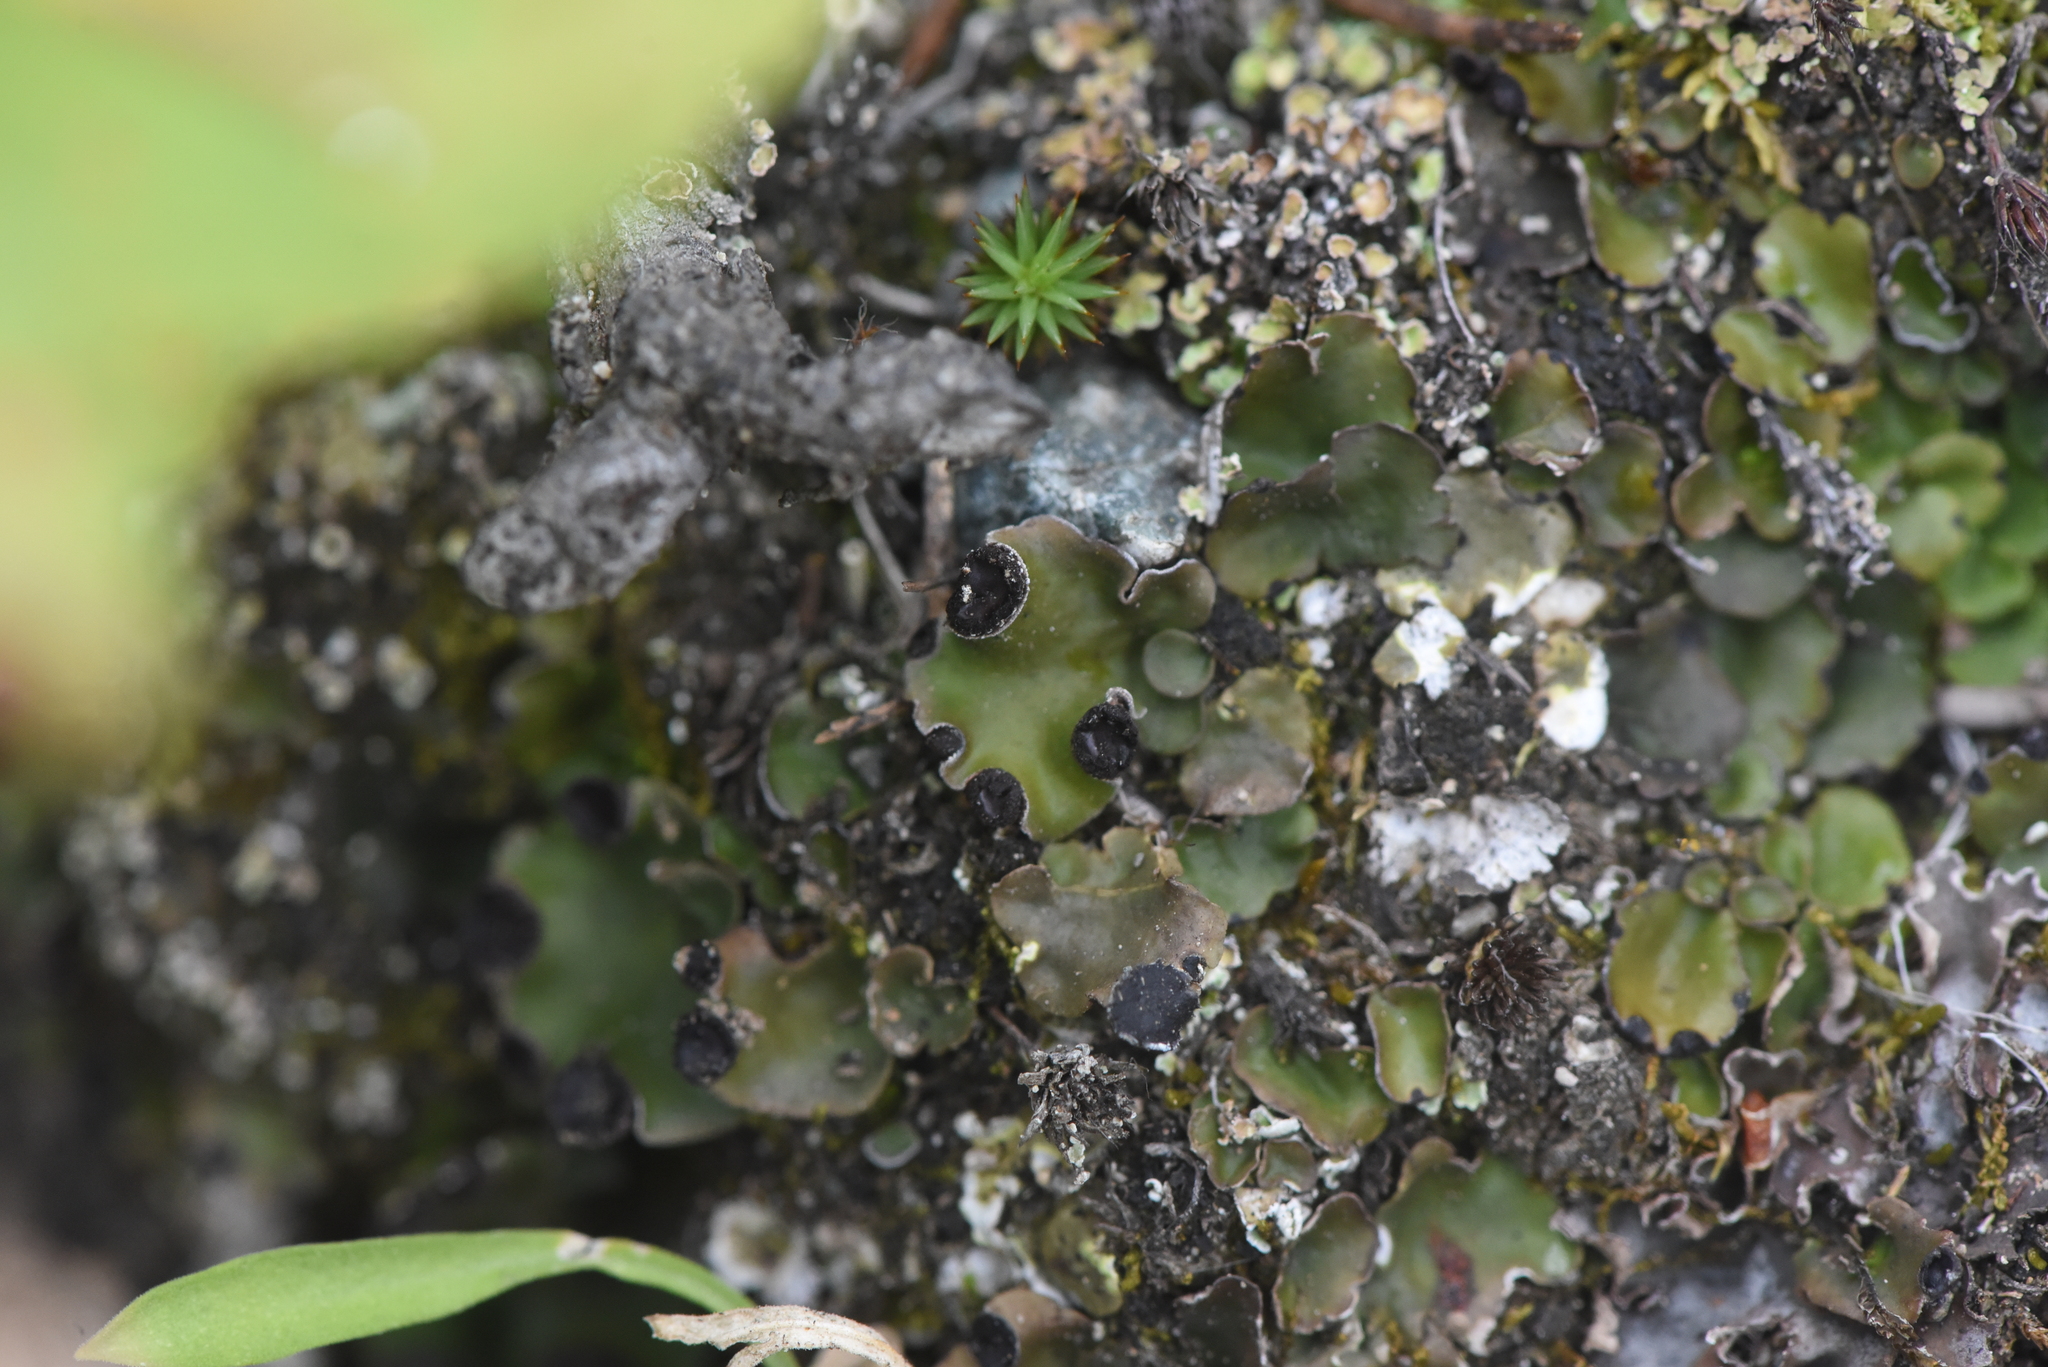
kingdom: Fungi
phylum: Ascomycota
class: Lecanoromycetes
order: Peltigerales
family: Peltigeraceae
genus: Peltigera
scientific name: Peltigera venosa
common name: Pixie gowns lichen
